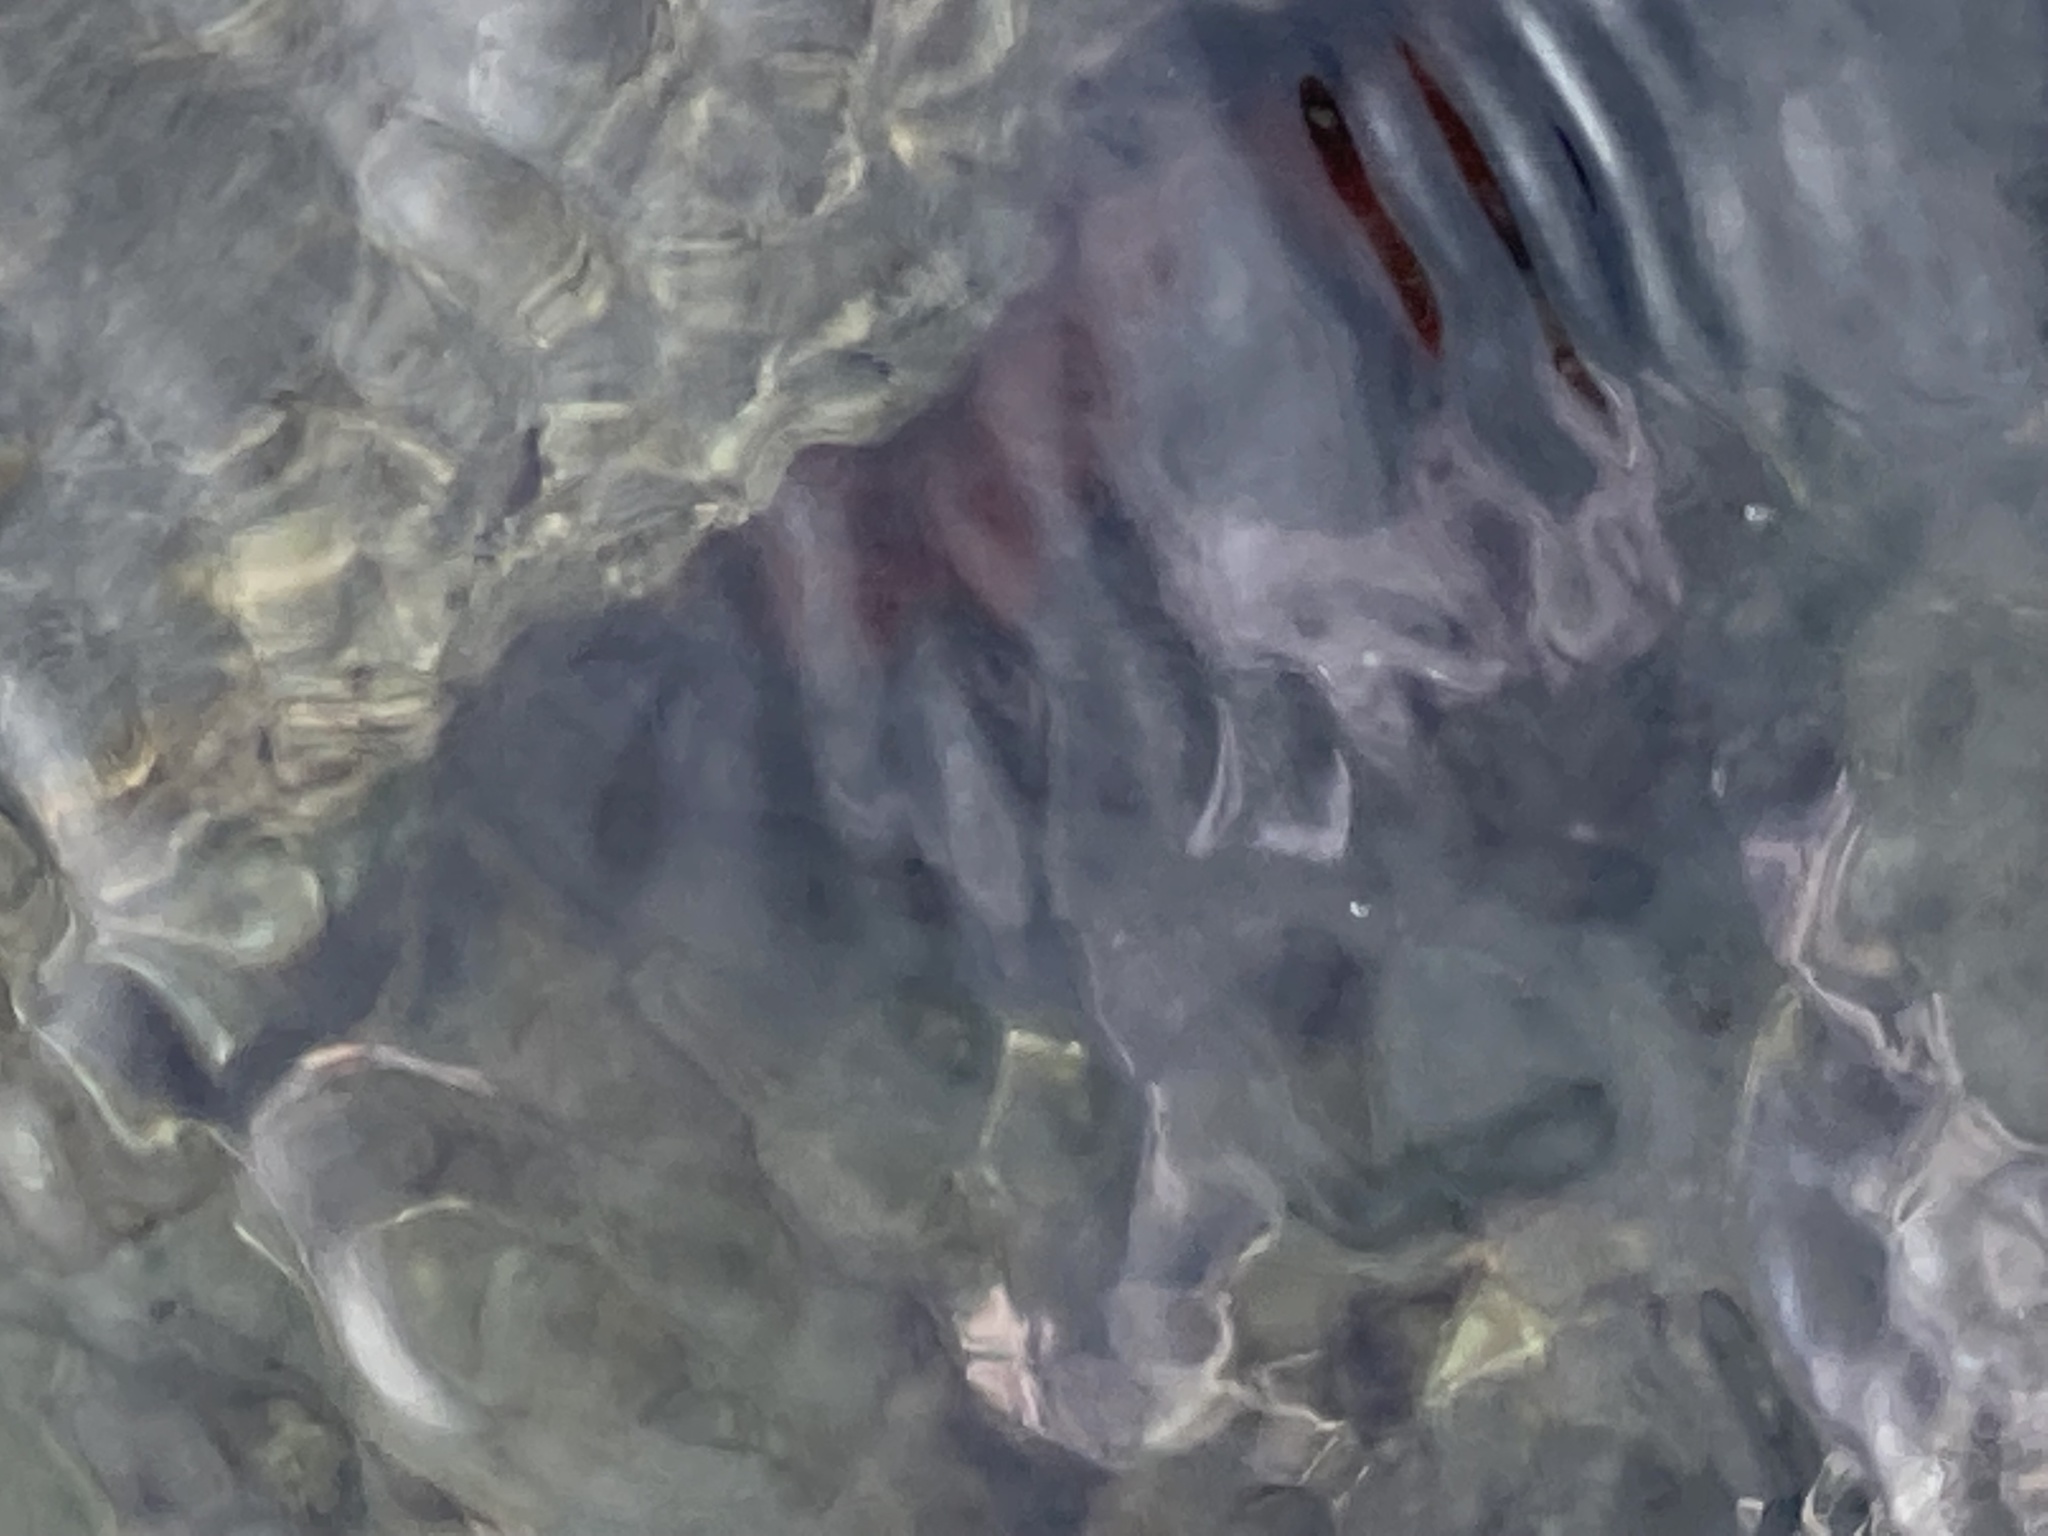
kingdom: Animalia
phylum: Cnidaria
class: Anthozoa
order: Actiniaria
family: Actiniidae
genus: Actinia
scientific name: Actinia tenebrosa
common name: Waratah anemone
